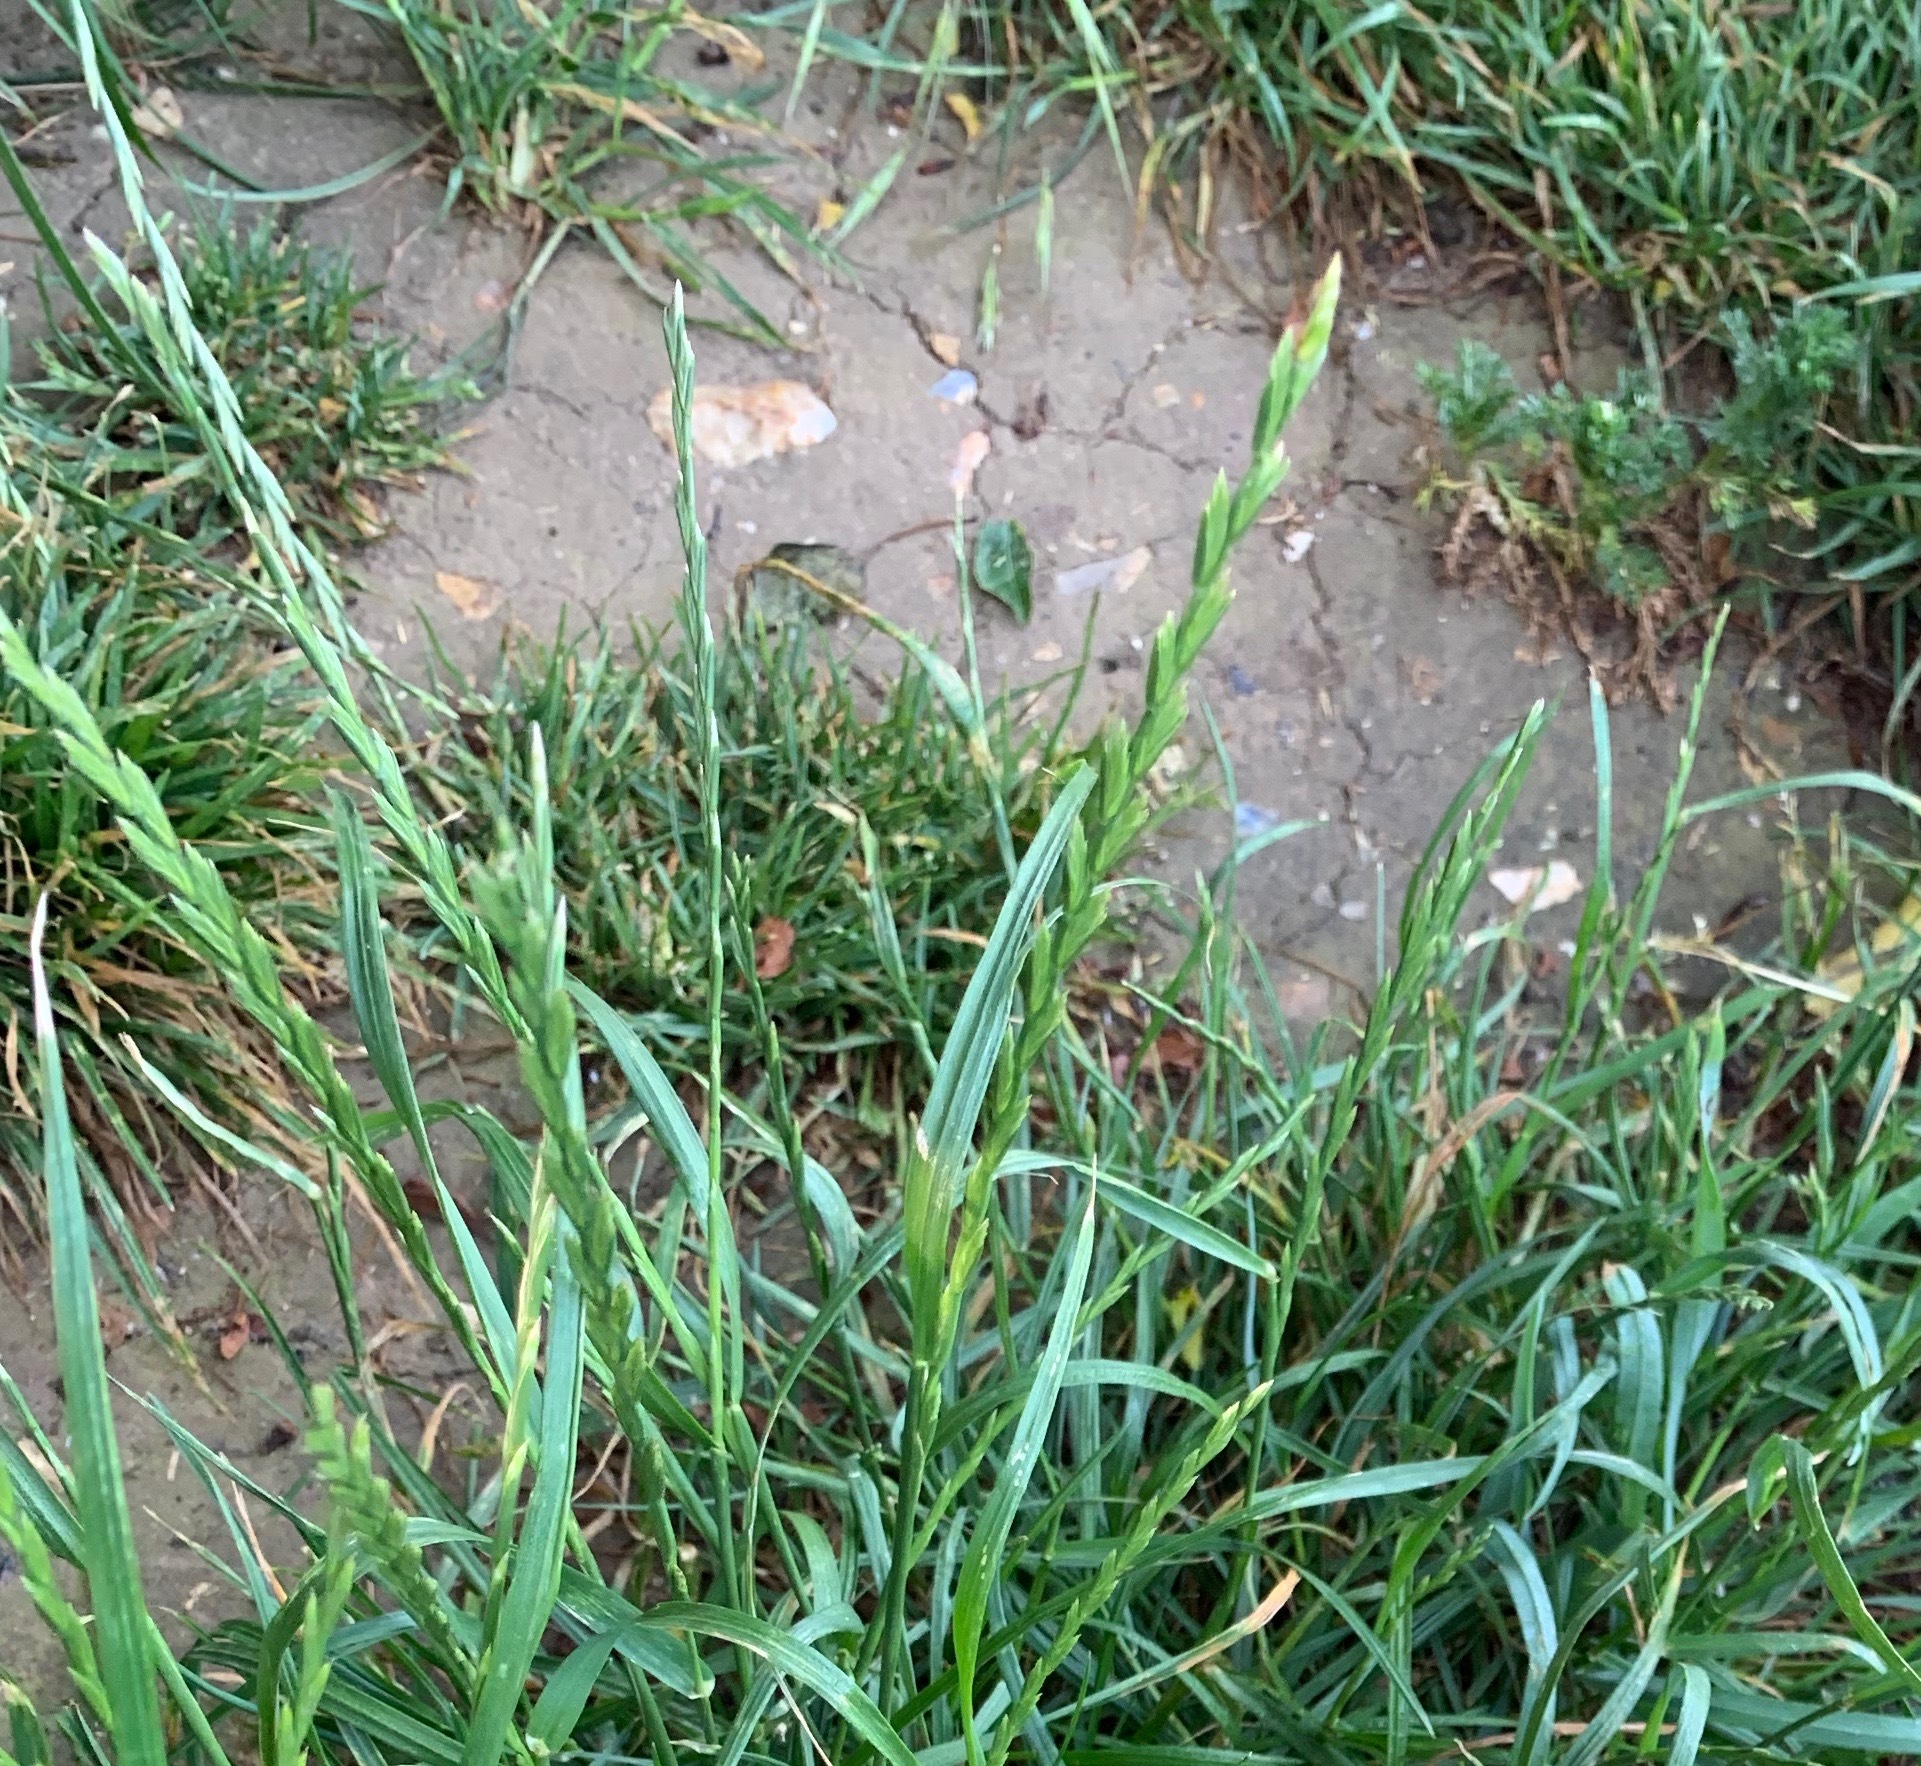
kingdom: Plantae
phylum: Tracheophyta
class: Liliopsida
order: Poales
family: Poaceae
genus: Lolium
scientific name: Lolium perenne
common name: Perennial ryegrass
